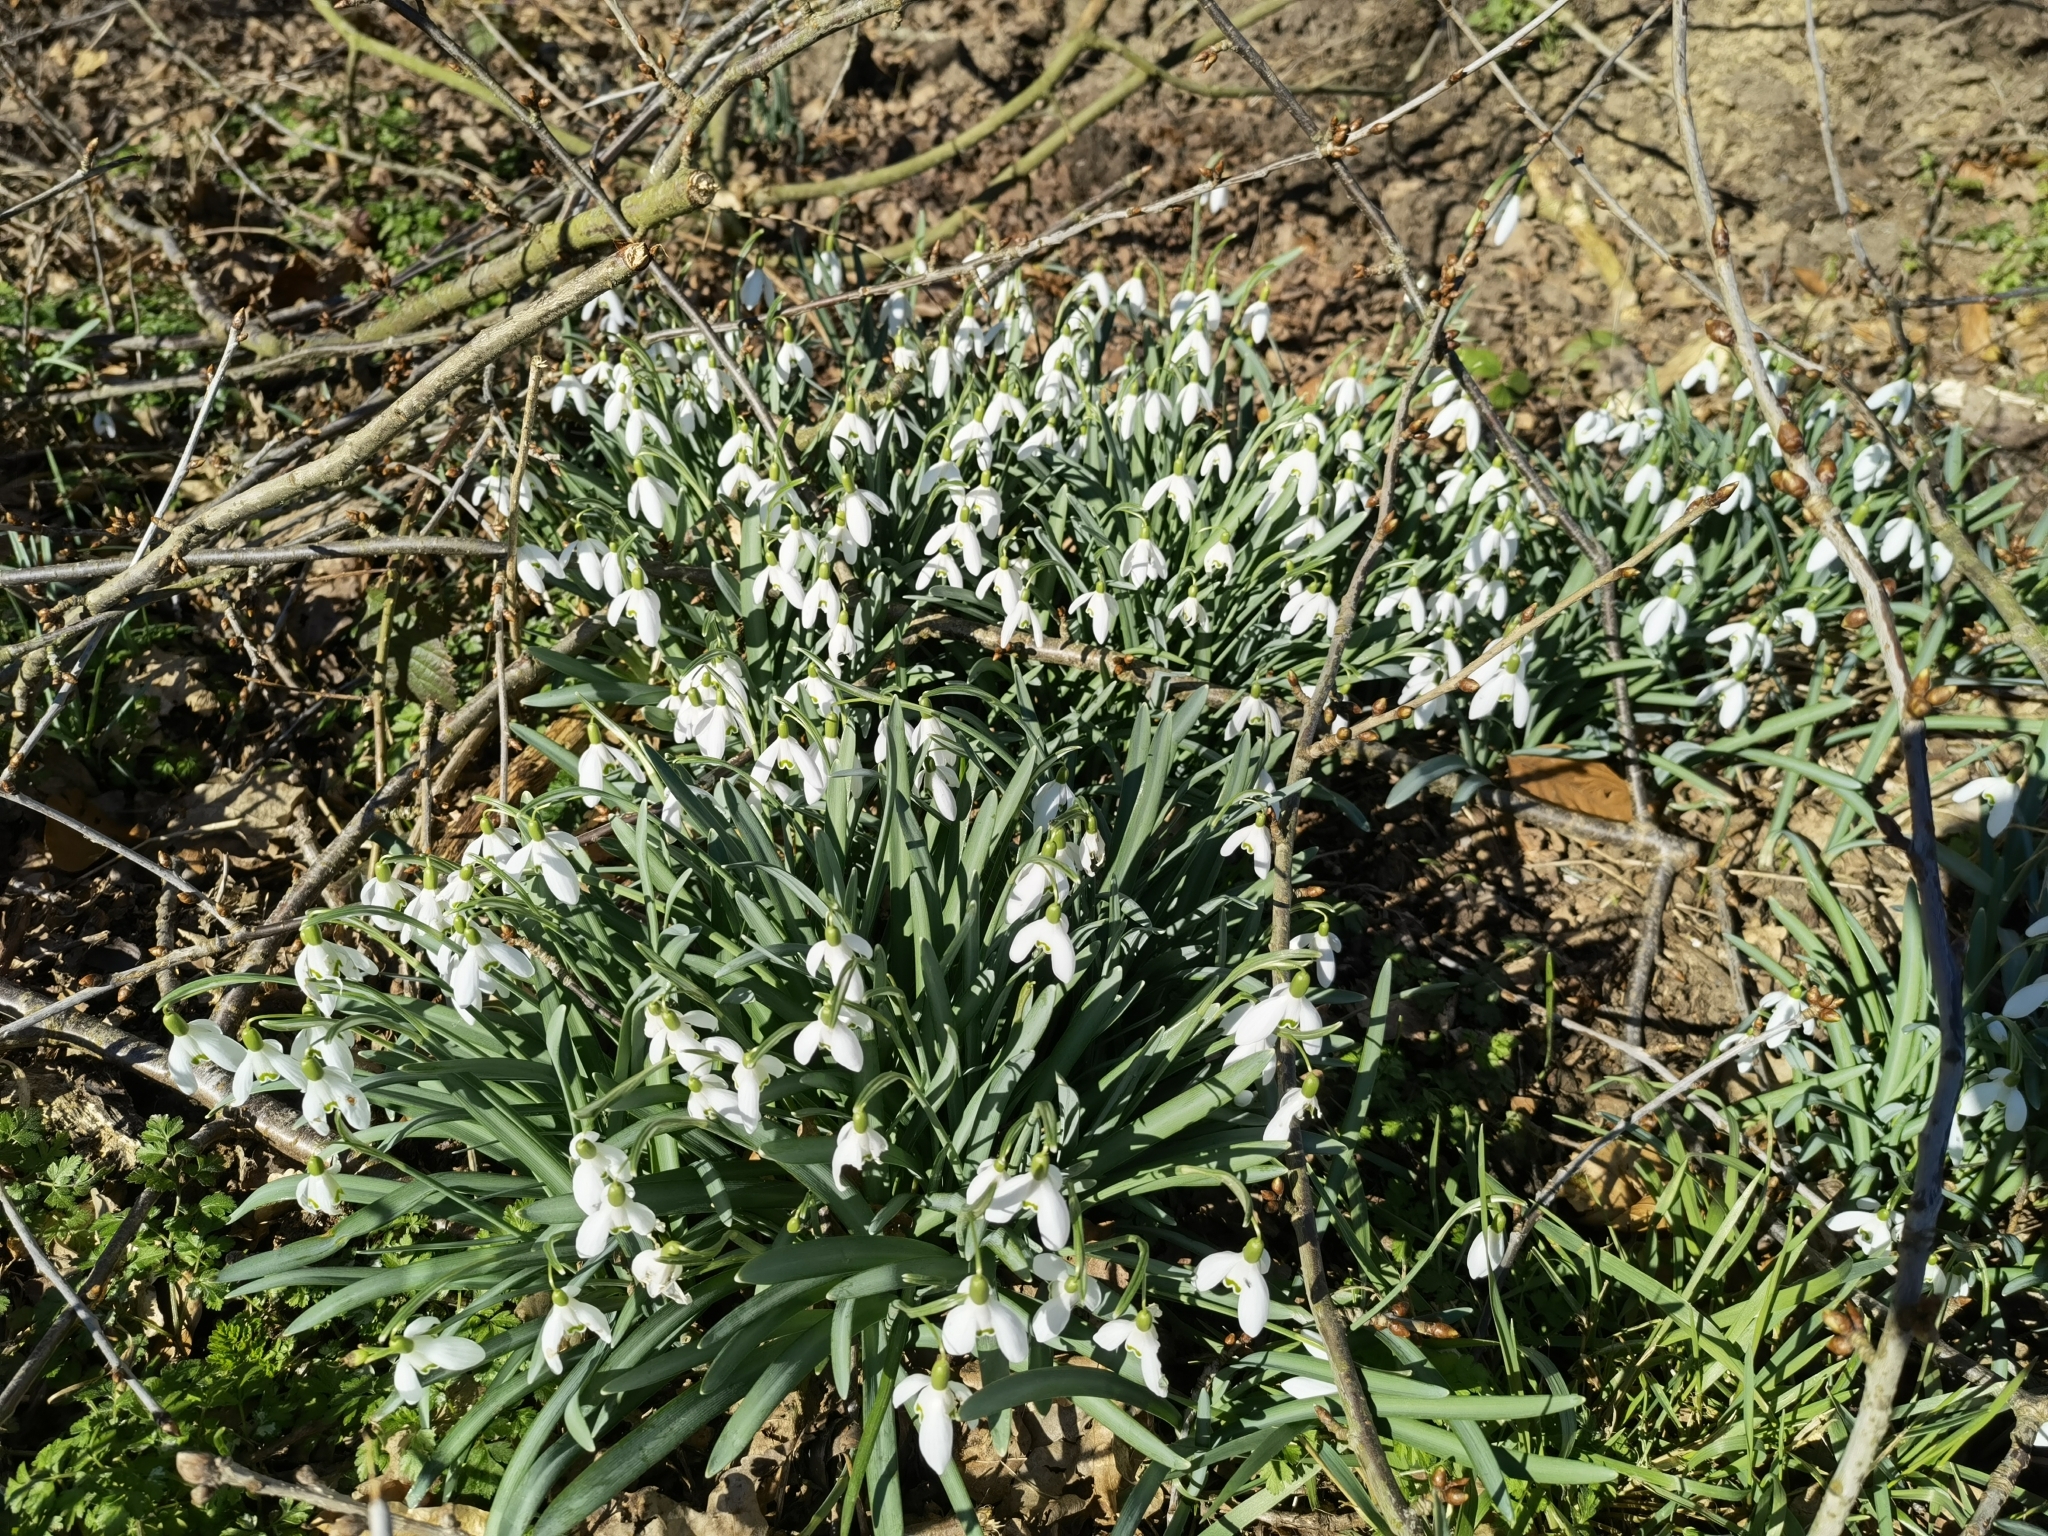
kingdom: Plantae
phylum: Tracheophyta
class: Liliopsida
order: Asparagales
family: Amaryllidaceae
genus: Galanthus
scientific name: Galanthus nivalis
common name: Snowdrop
